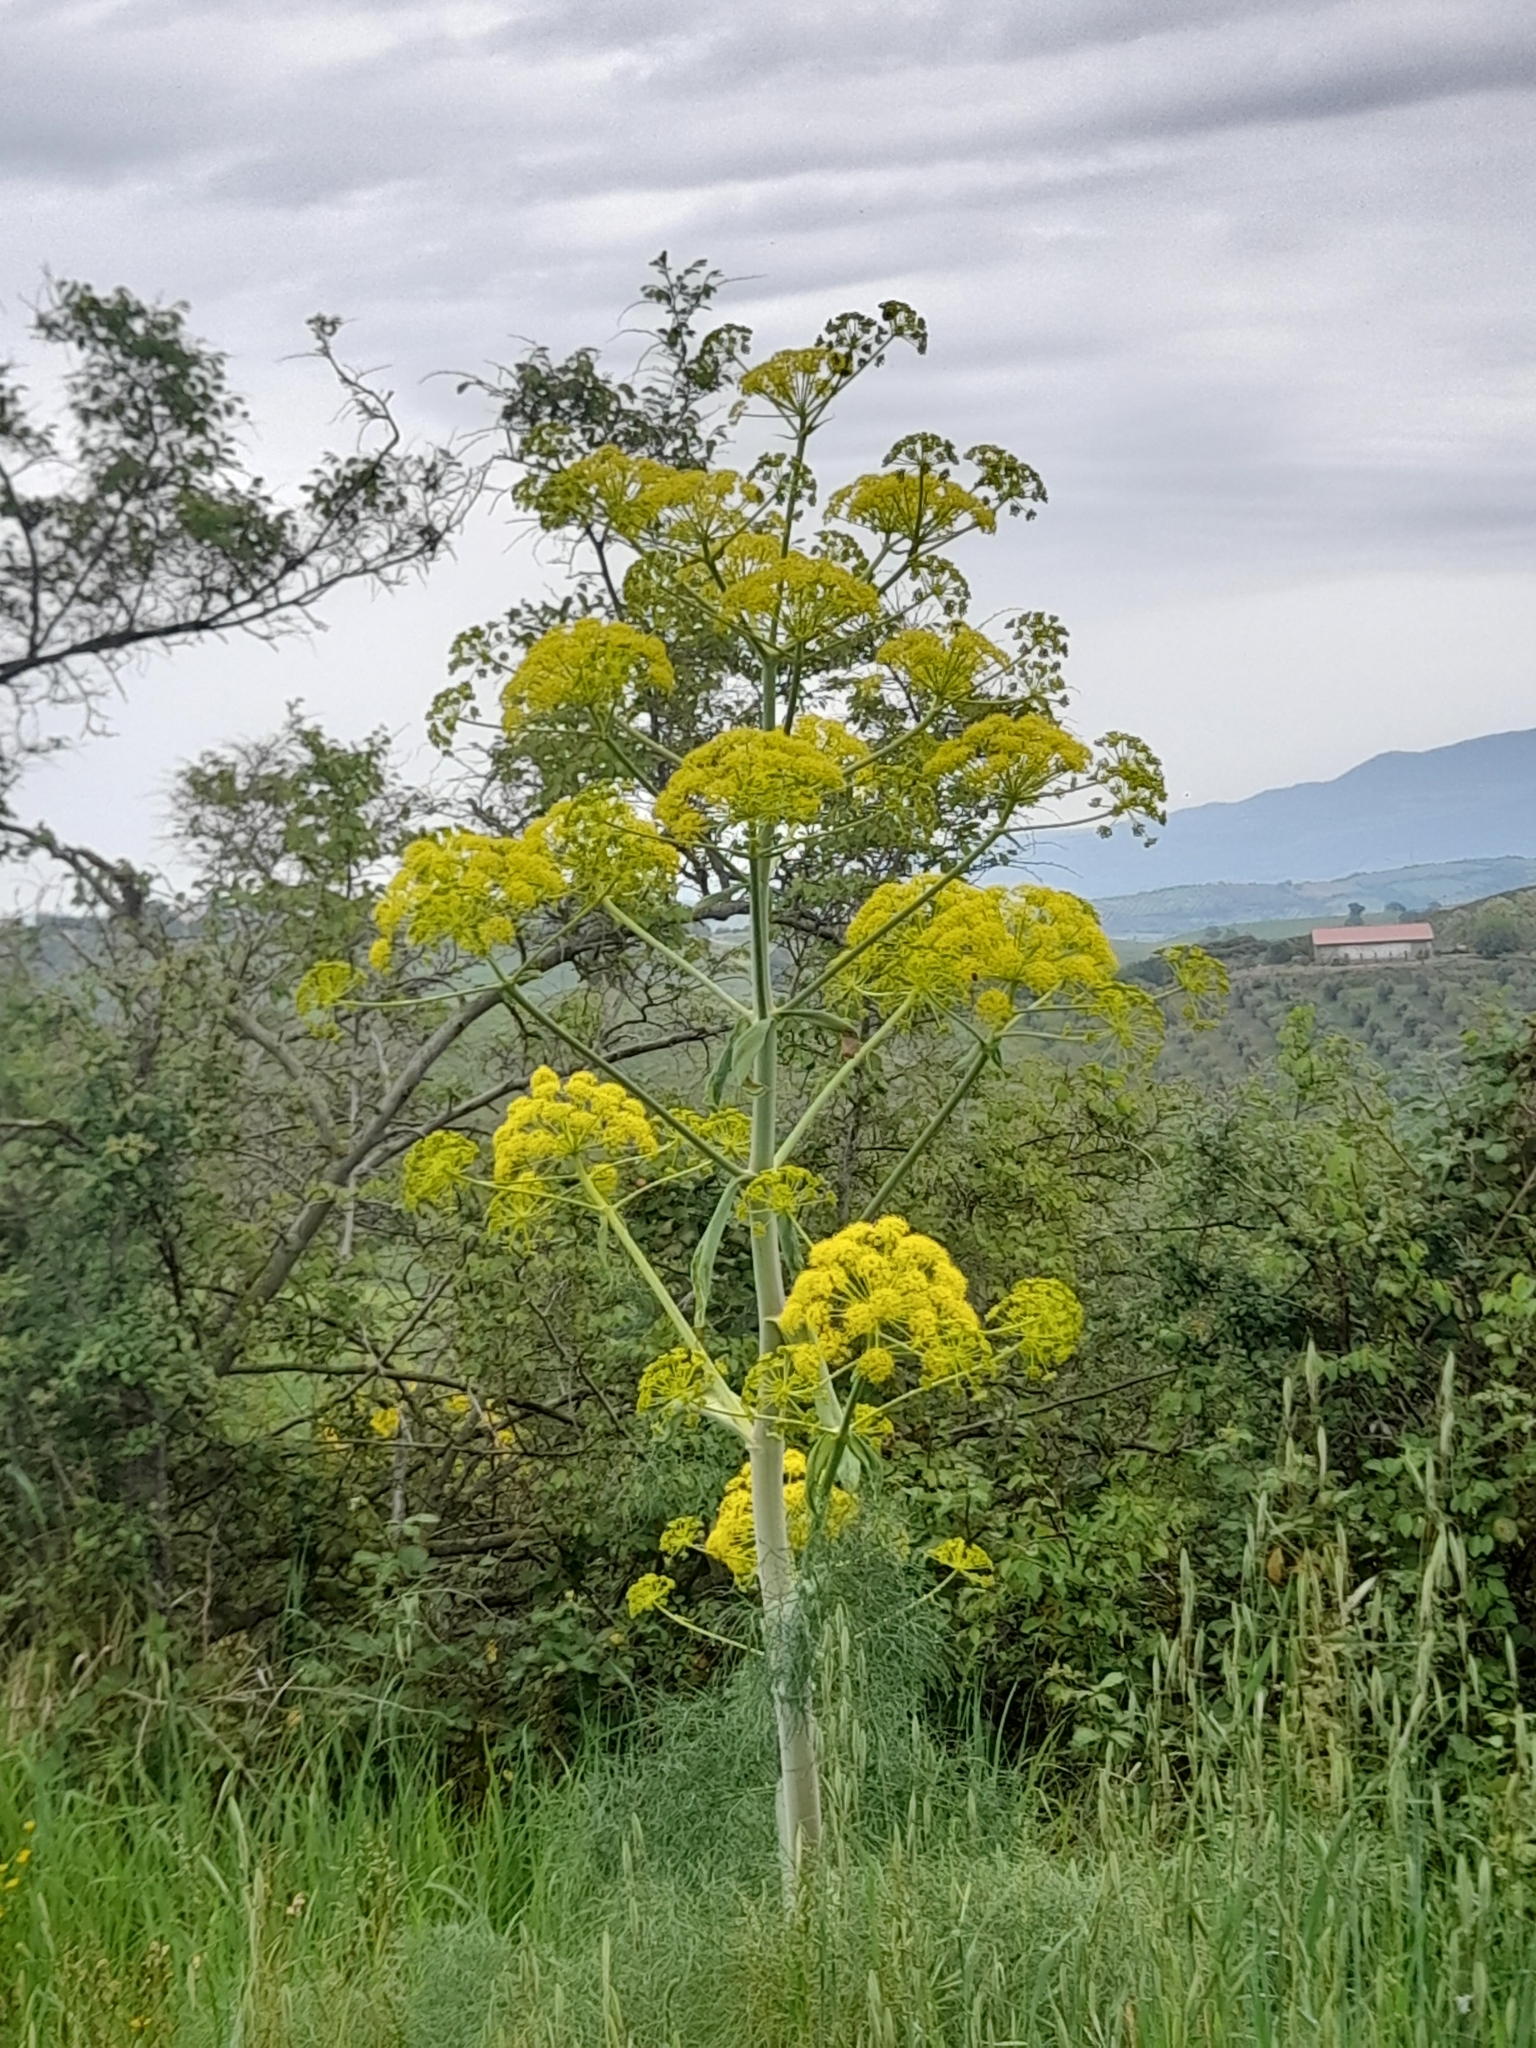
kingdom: Plantae
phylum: Tracheophyta
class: Magnoliopsida
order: Apiales
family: Apiaceae
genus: Ferula
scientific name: Ferula communis
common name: Giant fennel
